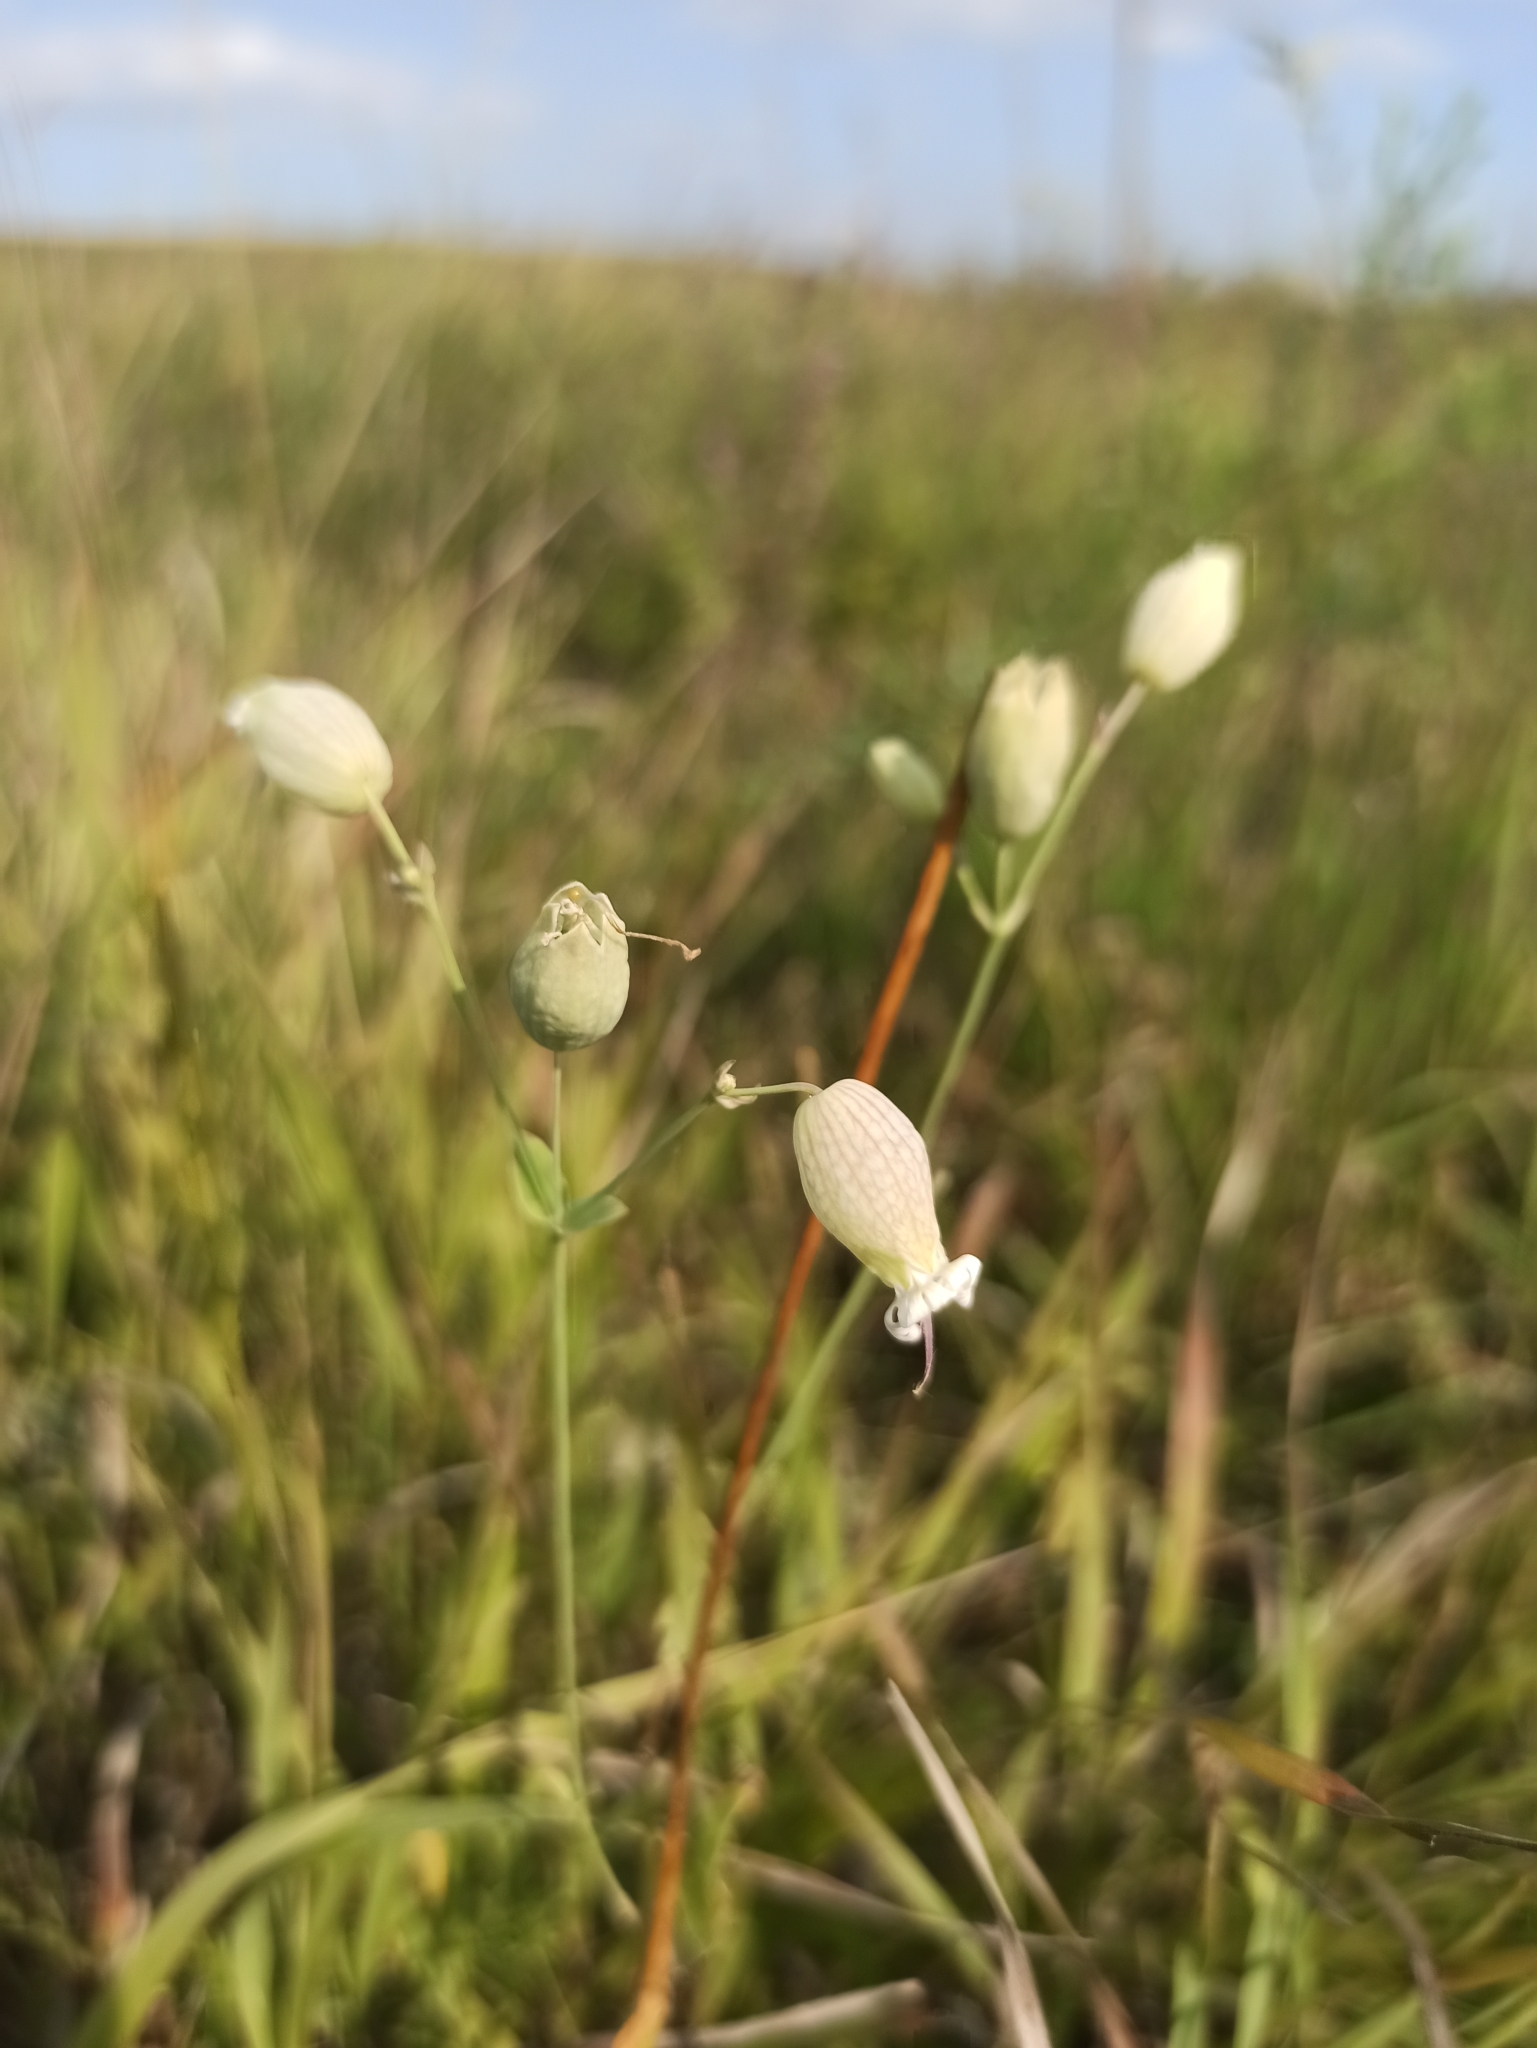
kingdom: Plantae
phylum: Tracheophyta
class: Magnoliopsida
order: Caryophyllales
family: Caryophyllaceae
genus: Silene
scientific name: Silene vulgaris
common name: Bladder campion
